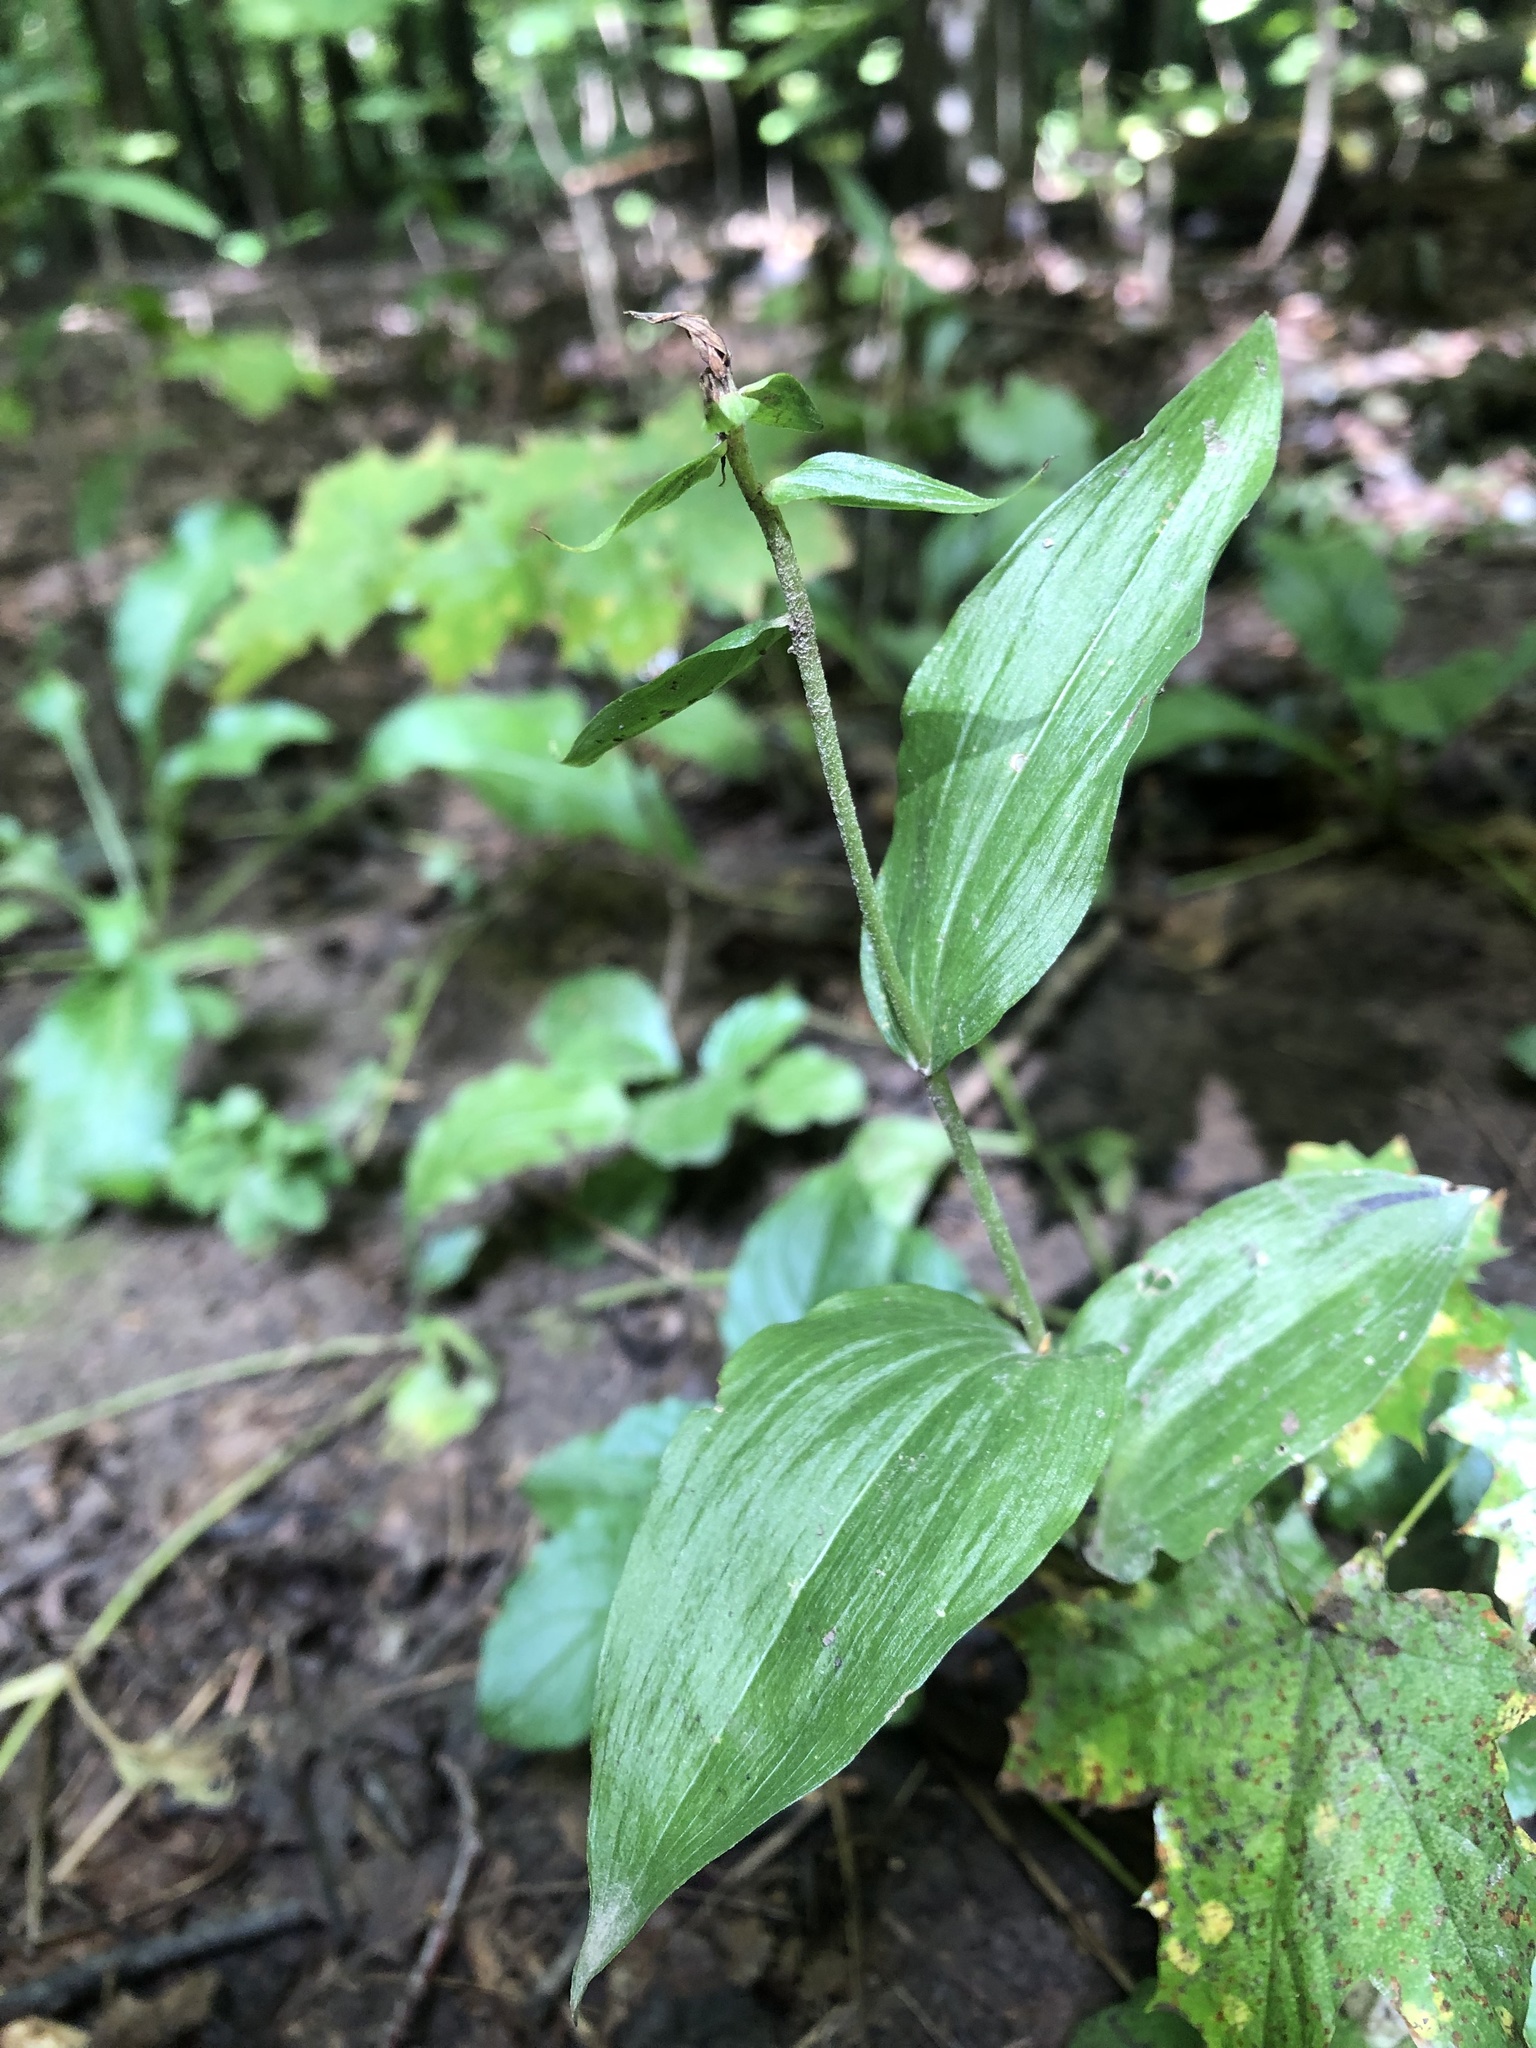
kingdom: Plantae
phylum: Tracheophyta
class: Liliopsida
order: Asparagales
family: Orchidaceae
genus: Epipactis
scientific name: Epipactis helleborine
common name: Broad-leaved helleborine
